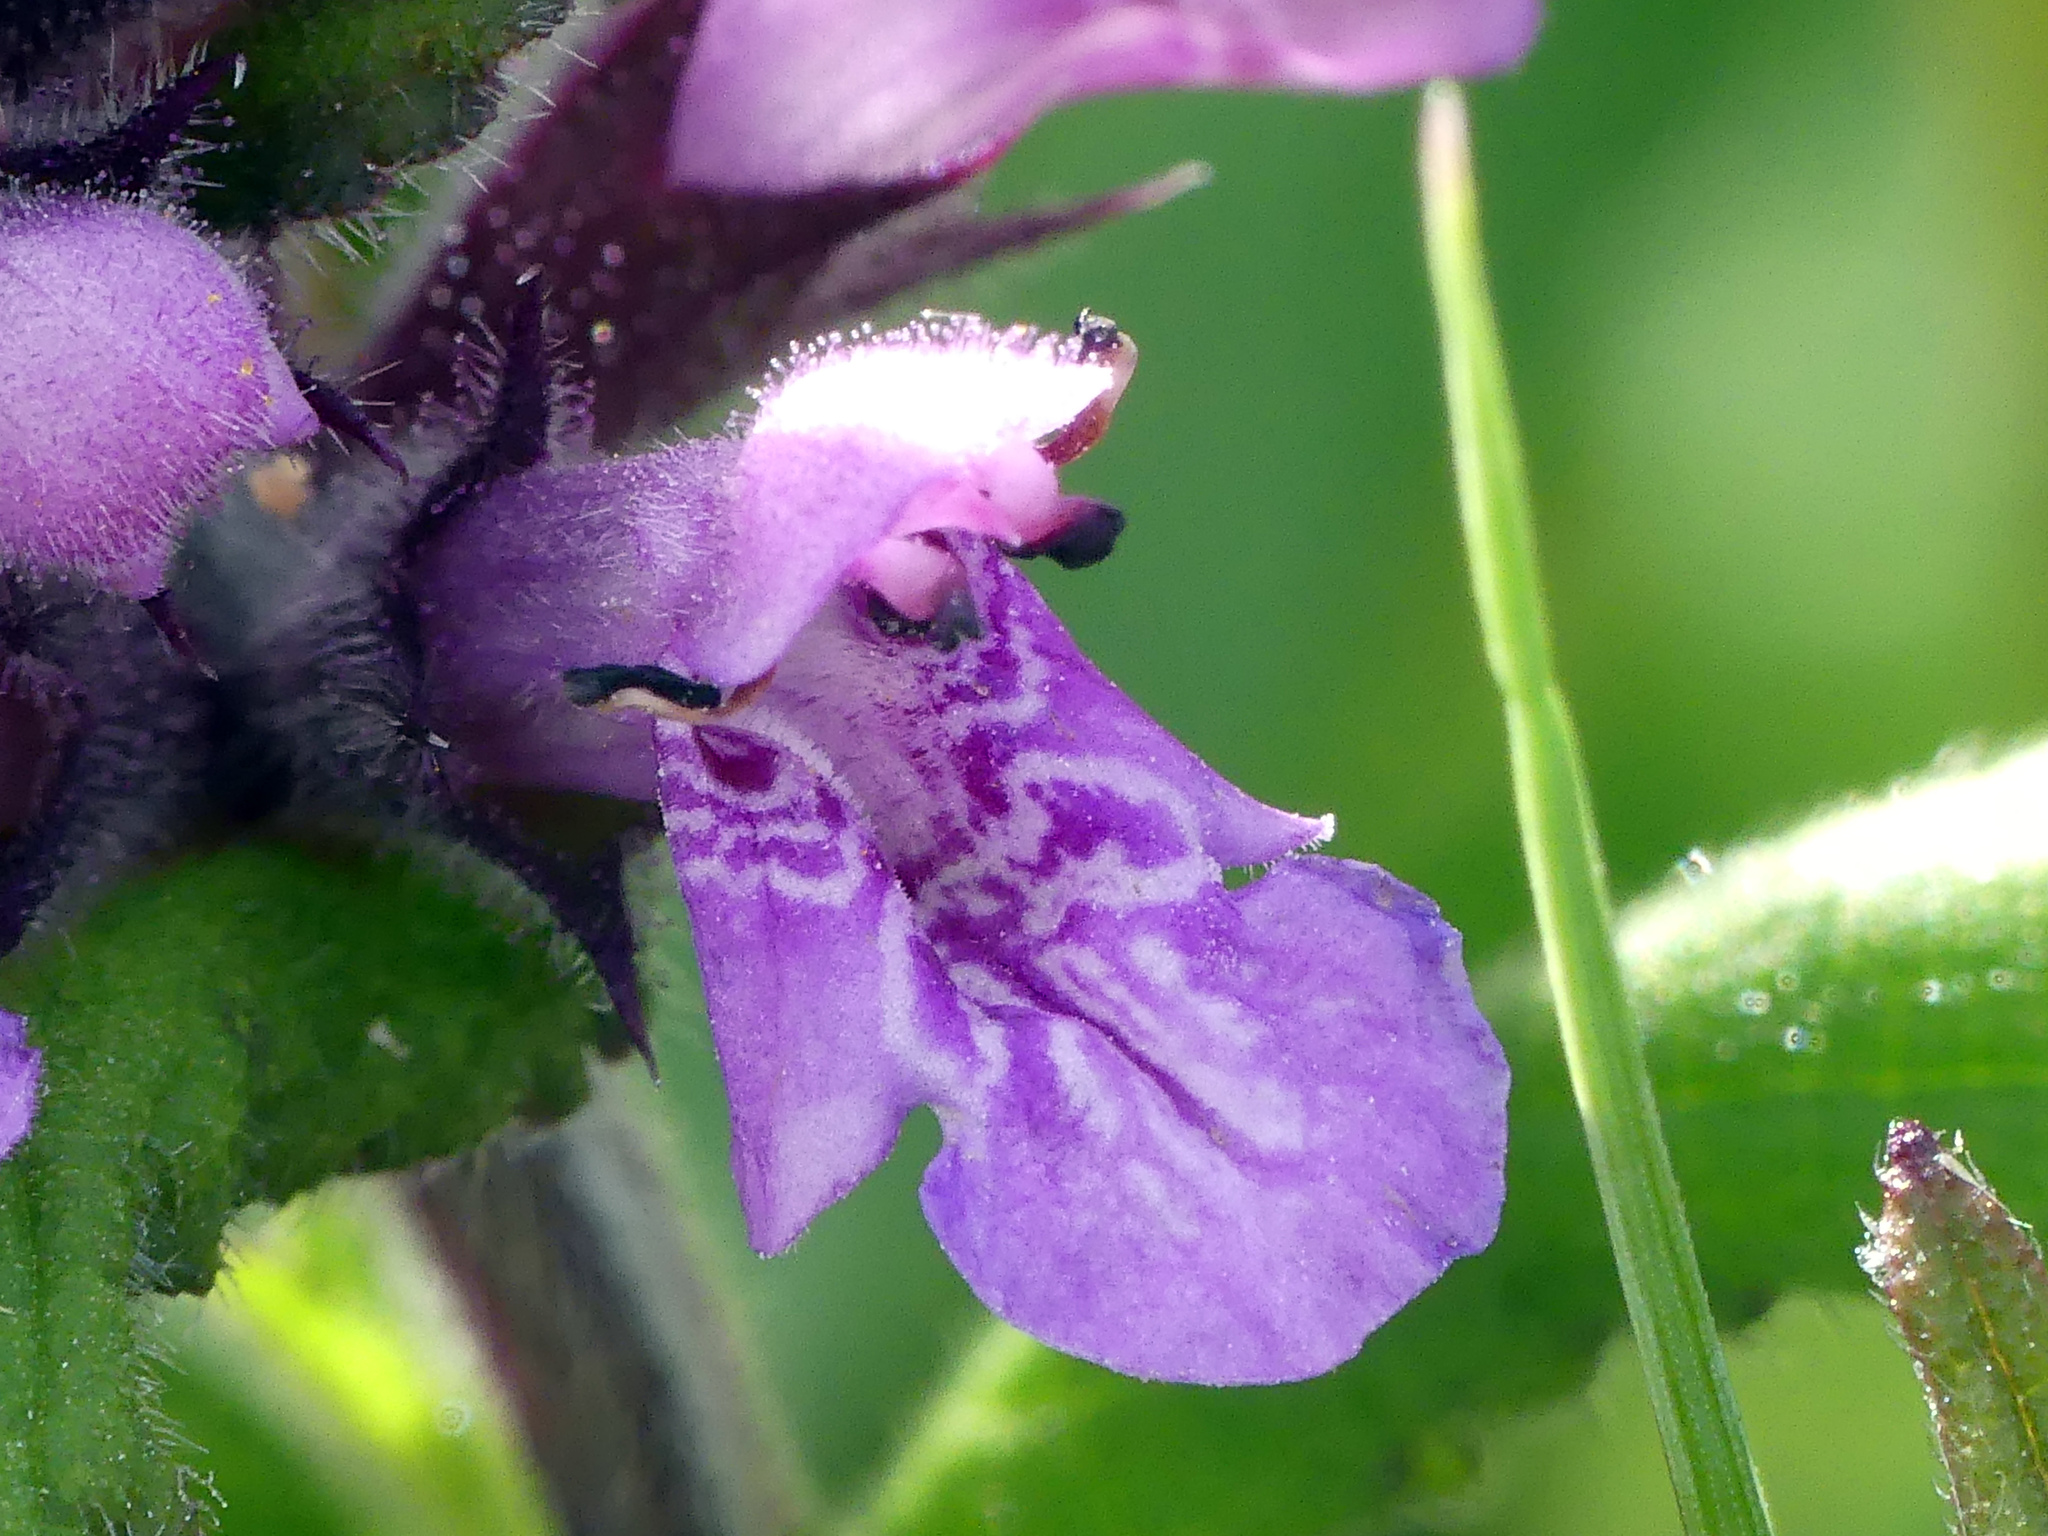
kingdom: Plantae
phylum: Tracheophyta
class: Magnoliopsida
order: Lamiales
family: Lamiaceae
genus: Stachys
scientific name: Stachys palustris
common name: Marsh woundwort
